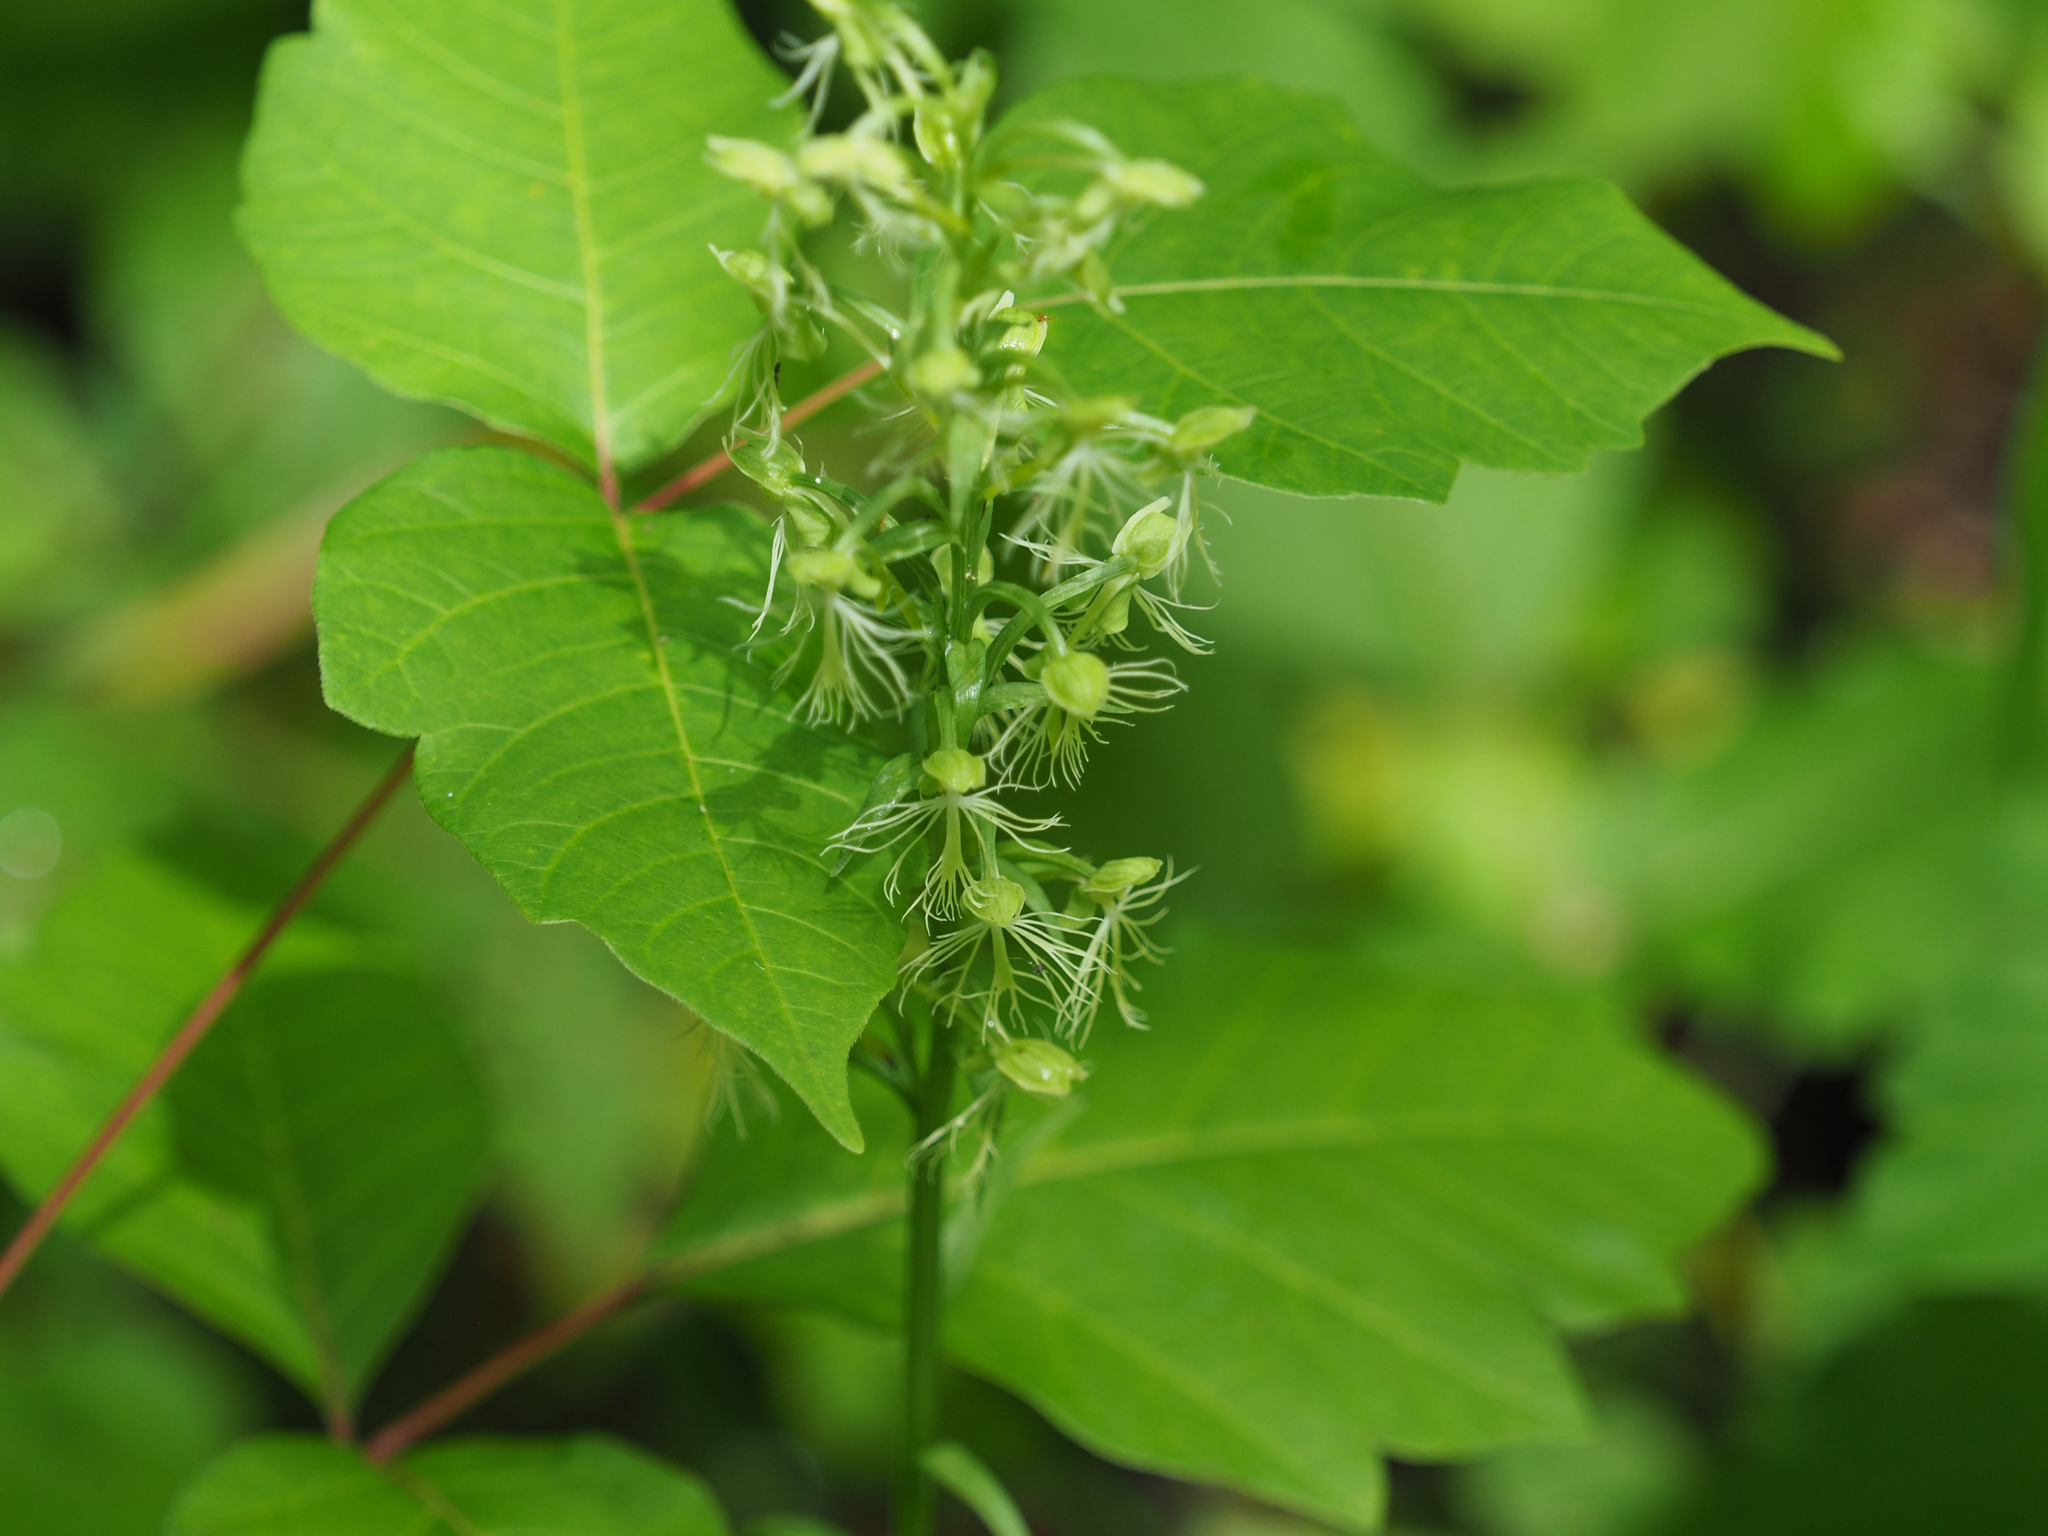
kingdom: Plantae
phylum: Tracheophyta
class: Liliopsida
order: Asparagales
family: Orchidaceae
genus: Platanthera
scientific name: Platanthera lacera
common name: Green fringed orchid
